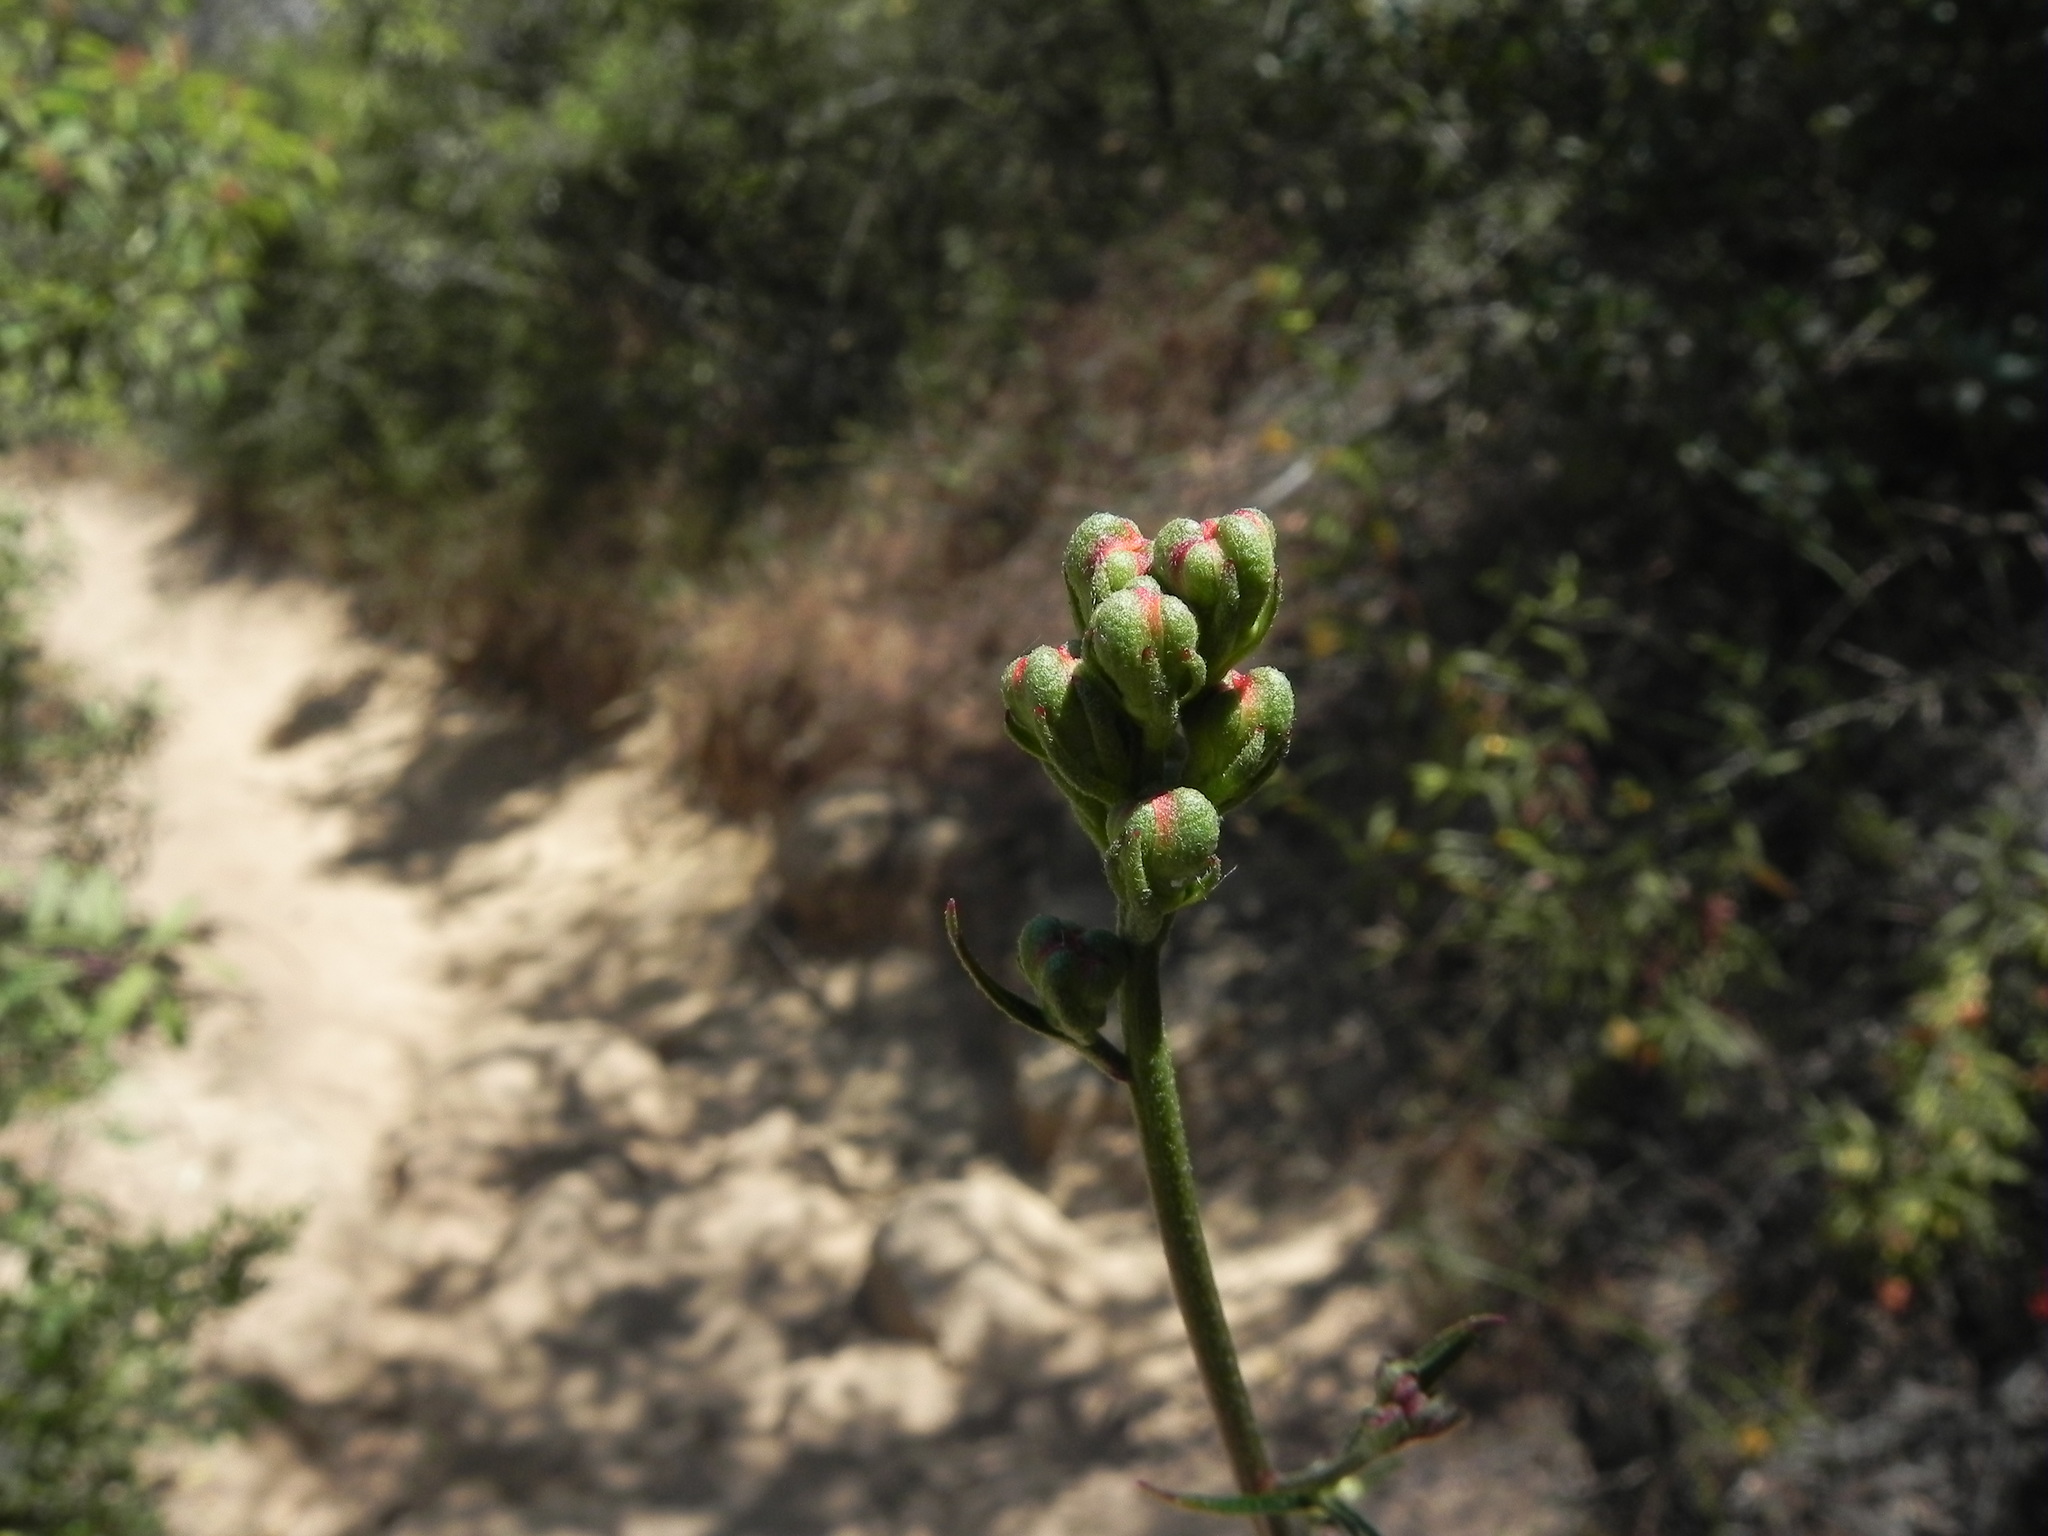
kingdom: Plantae
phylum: Tracheophyta
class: Magnoliopsida
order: Ranunculales
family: Ranunculaceae
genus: Delphinium
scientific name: Delphinium cardinale
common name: Scarlet larkspur
